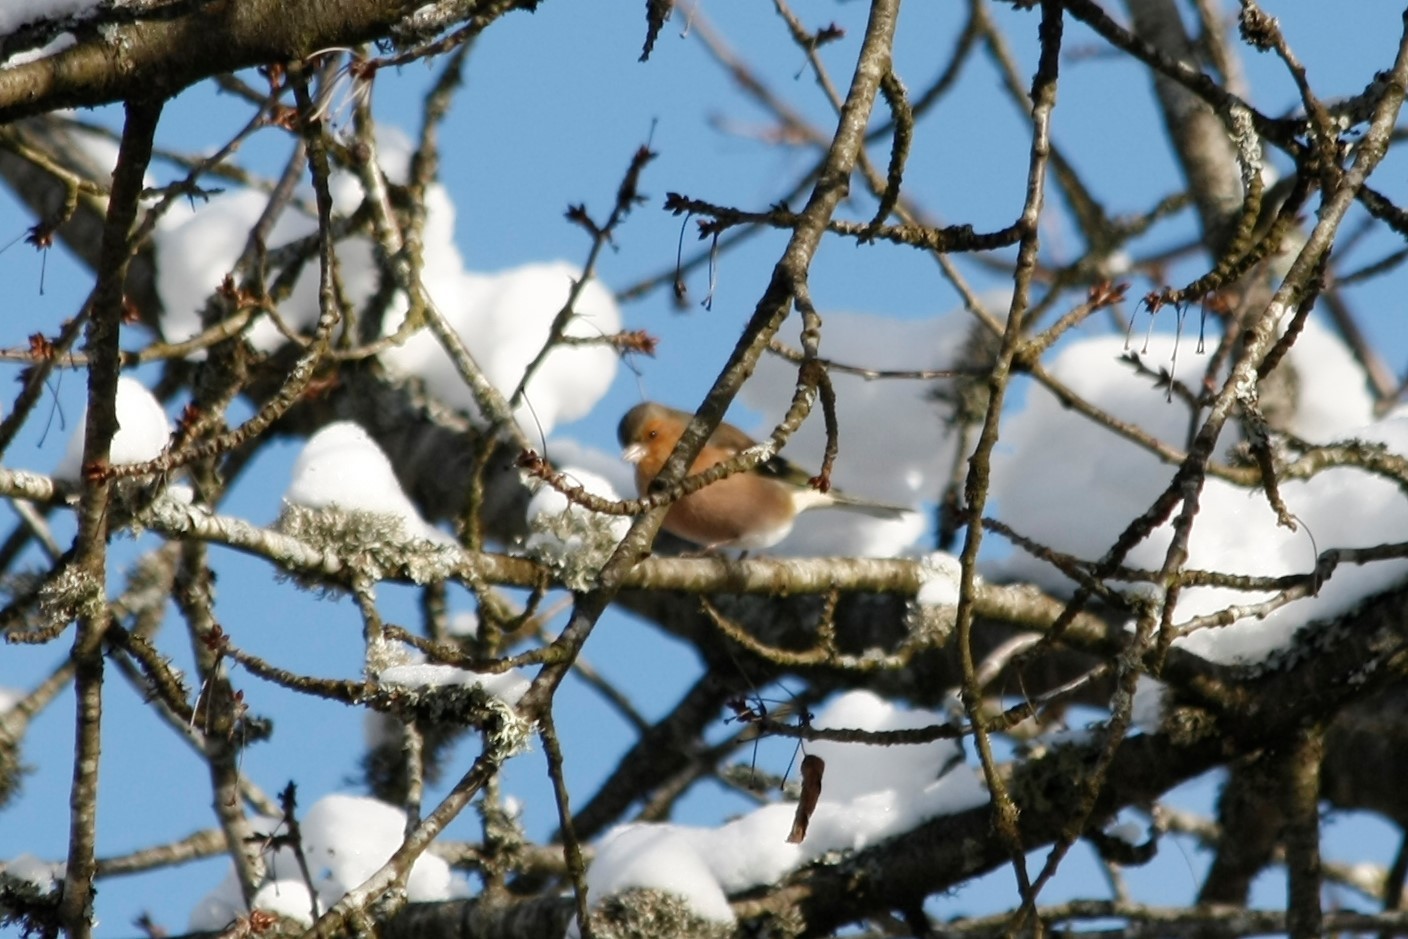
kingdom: Animalia
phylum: Chordata
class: Aves
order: Passeriformes
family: Fringillidae
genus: Fringilla
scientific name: Fringilla coelebs
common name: Common chaffinch
